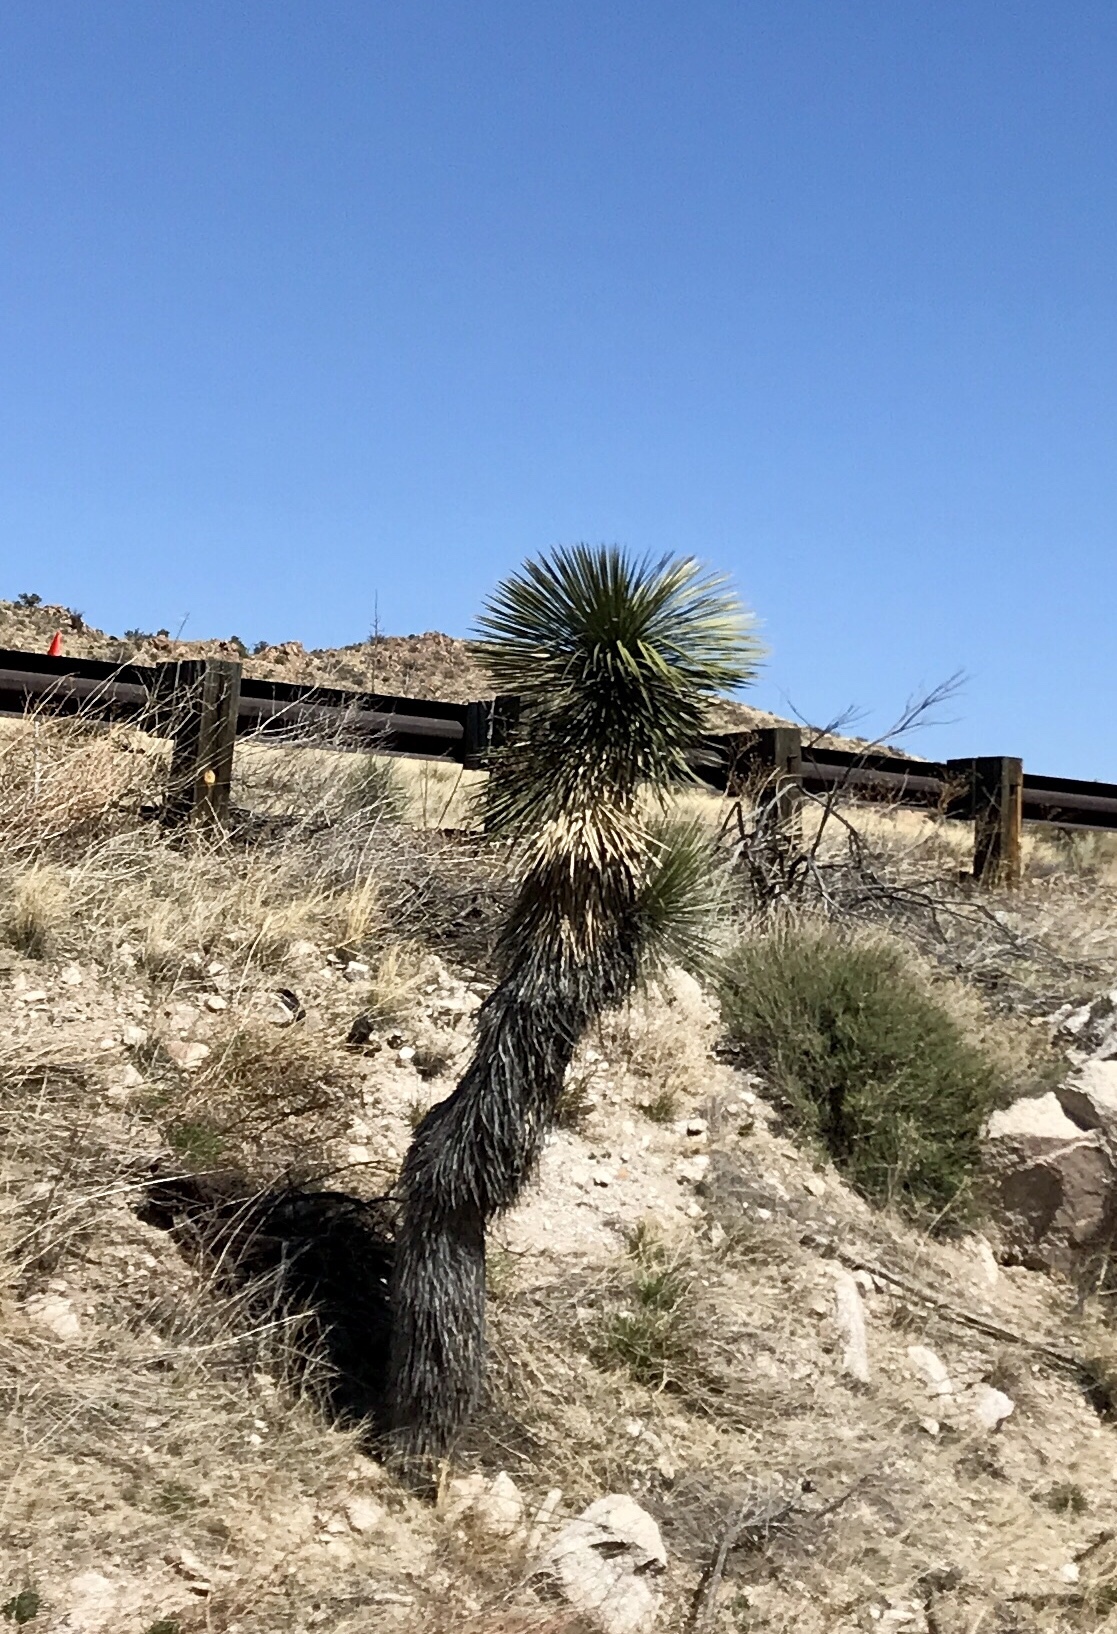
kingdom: Plantae
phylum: Tracheophyta
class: Liliopsida
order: Asparagales
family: Asparagaceae
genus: Yucca
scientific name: Yucca elata
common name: Palmella
